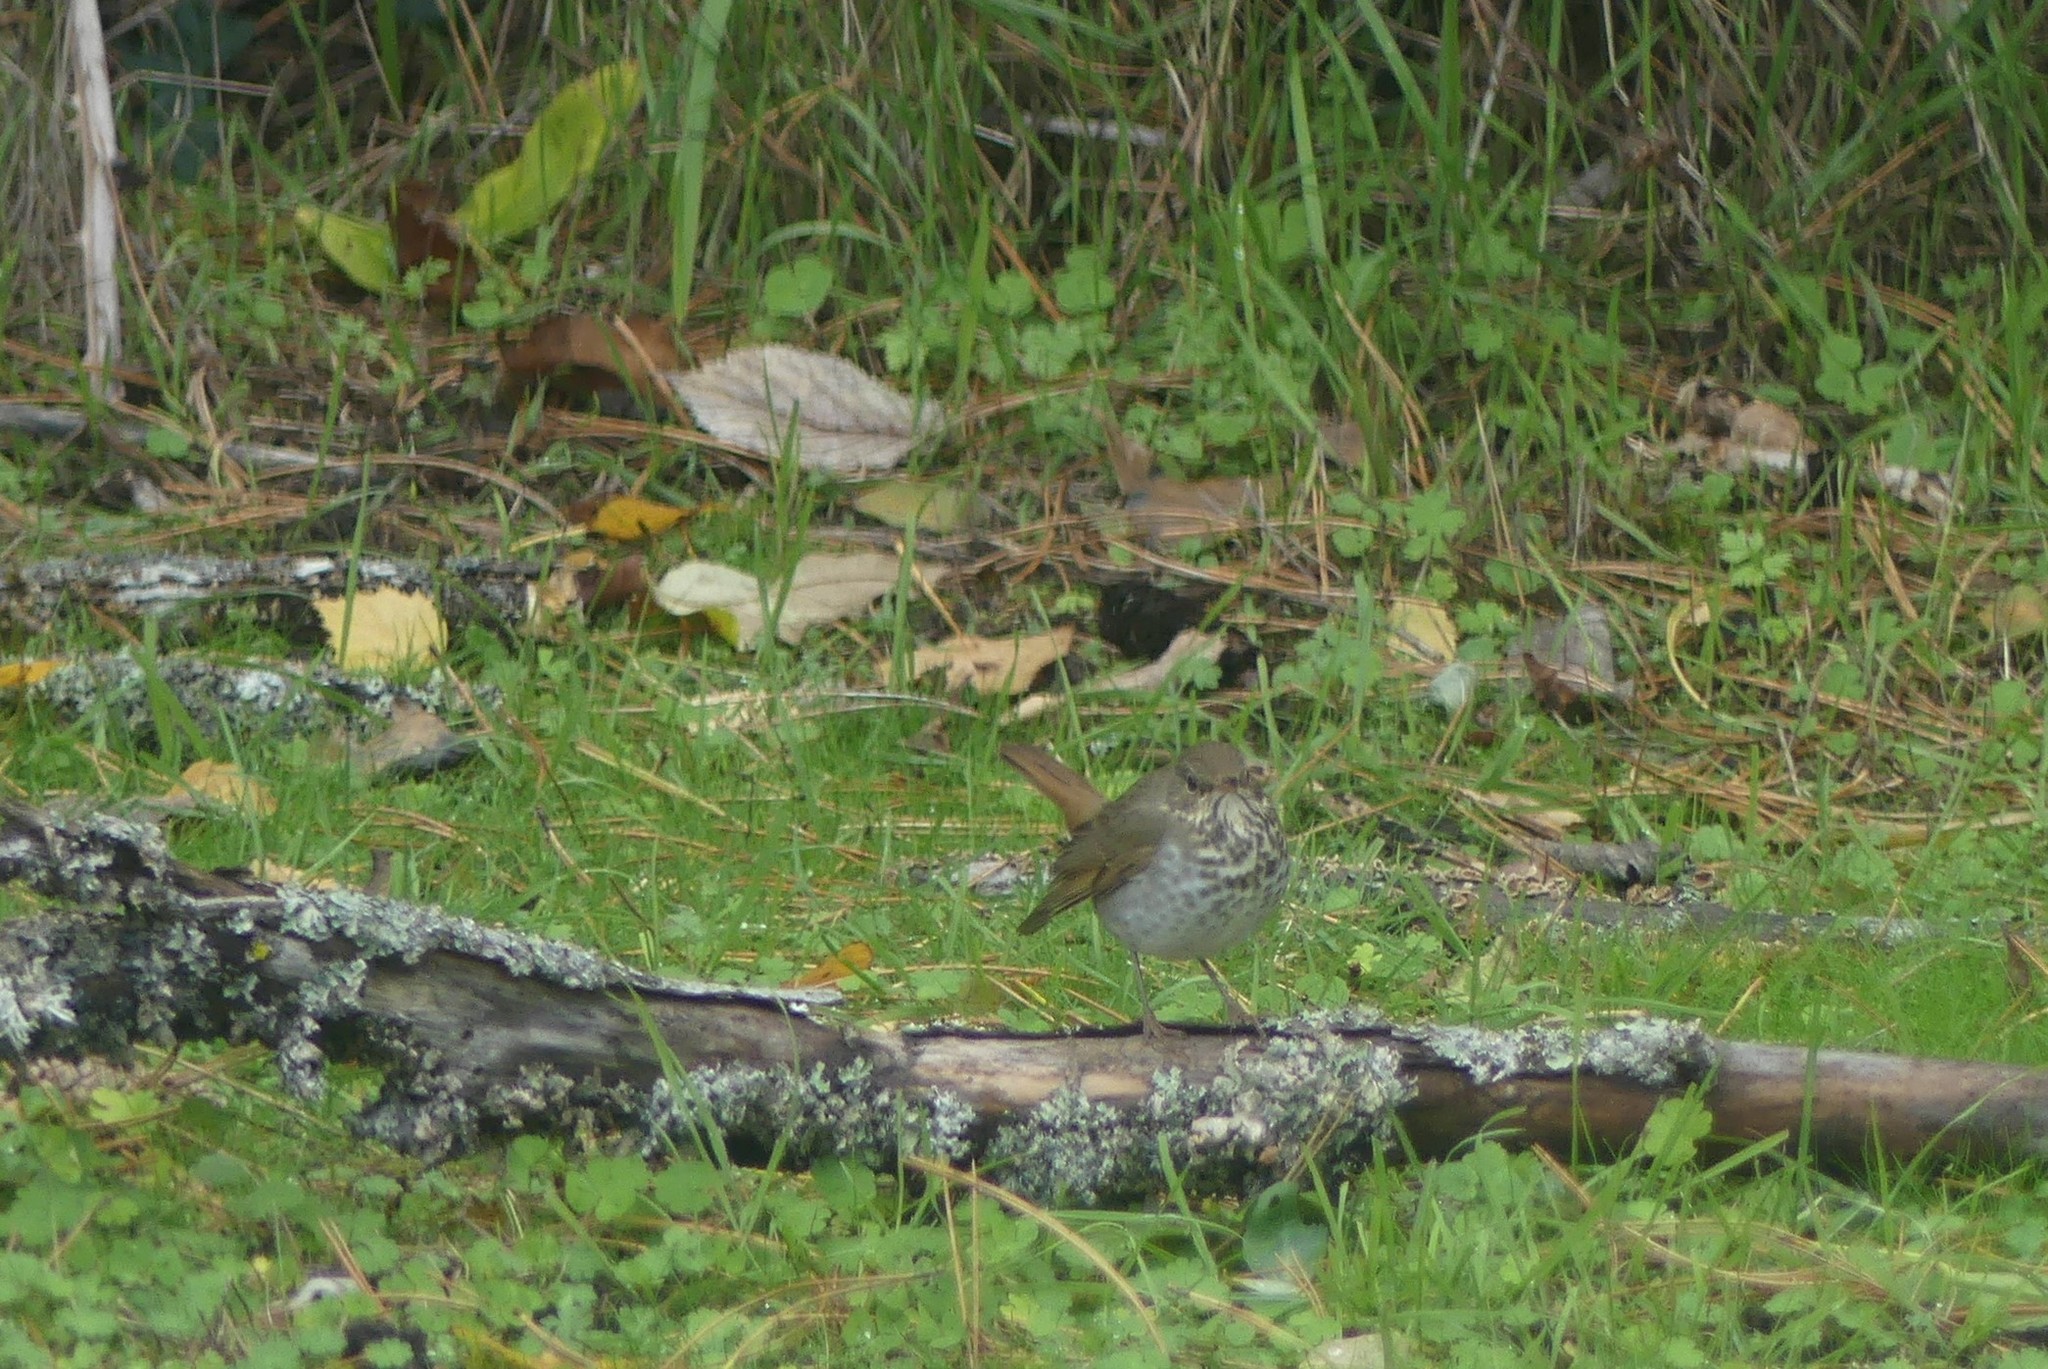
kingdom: Animalia
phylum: Chordata
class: Aves
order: Passeriformes
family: Turdidae
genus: Catharus
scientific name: Catharus guttatus
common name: Hermit thrush
